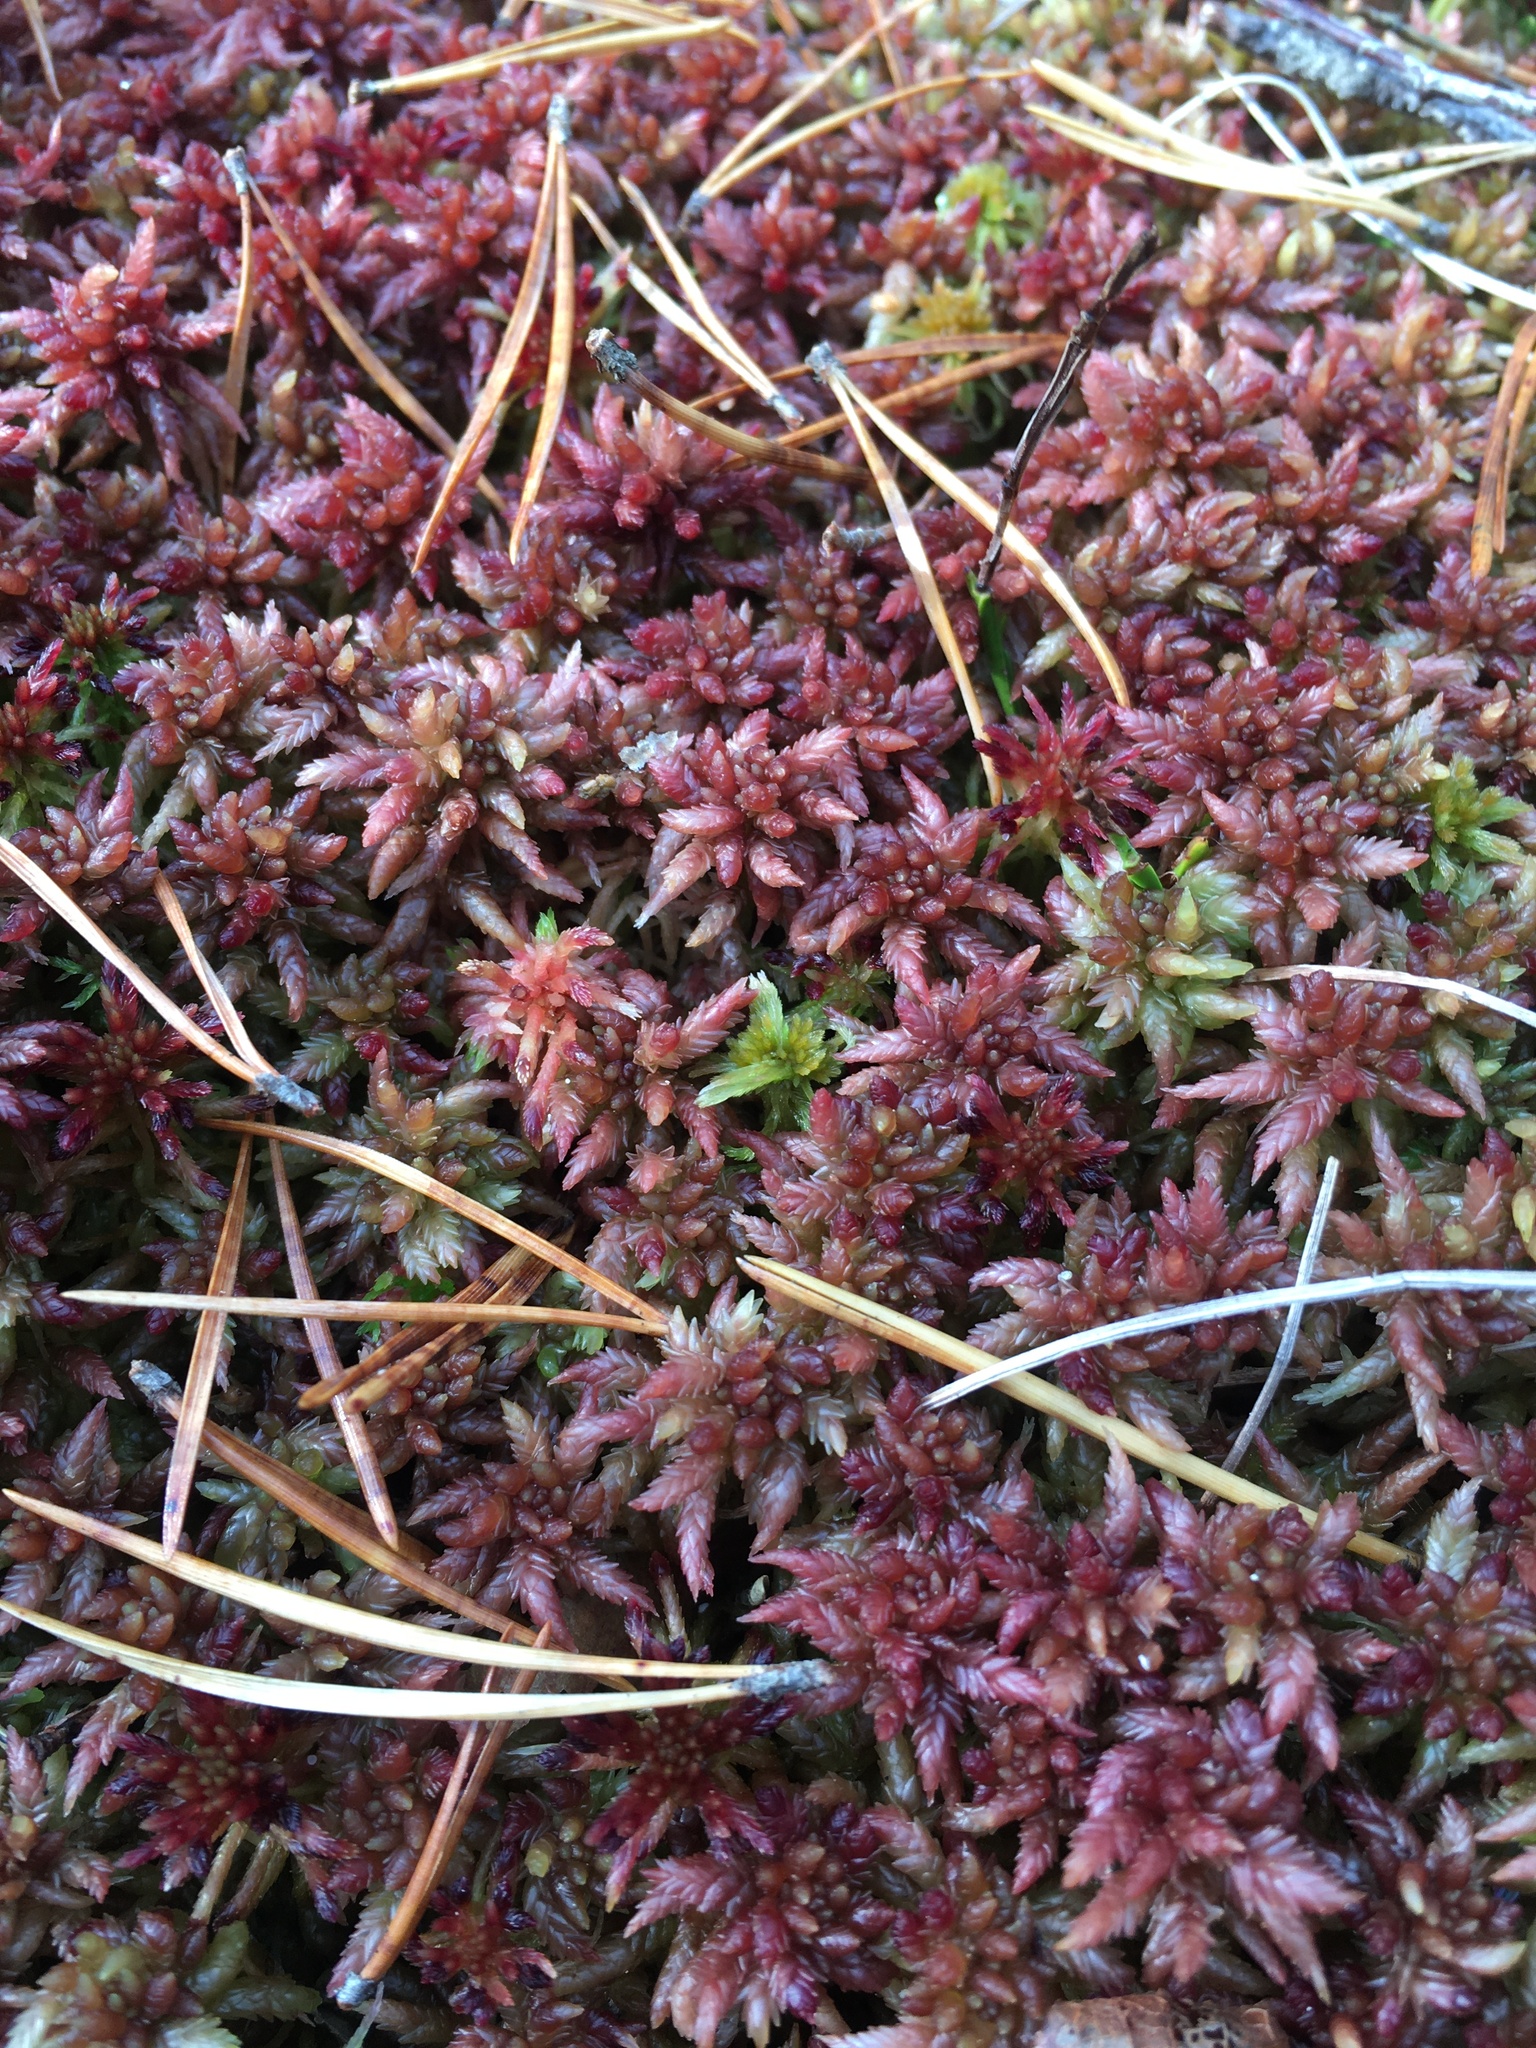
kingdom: Plantae
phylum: Bryophyta
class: Sphagnopsida
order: Sphagnales
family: Sphagnaceae
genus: Sphagnum
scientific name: Sphagnum divinum
